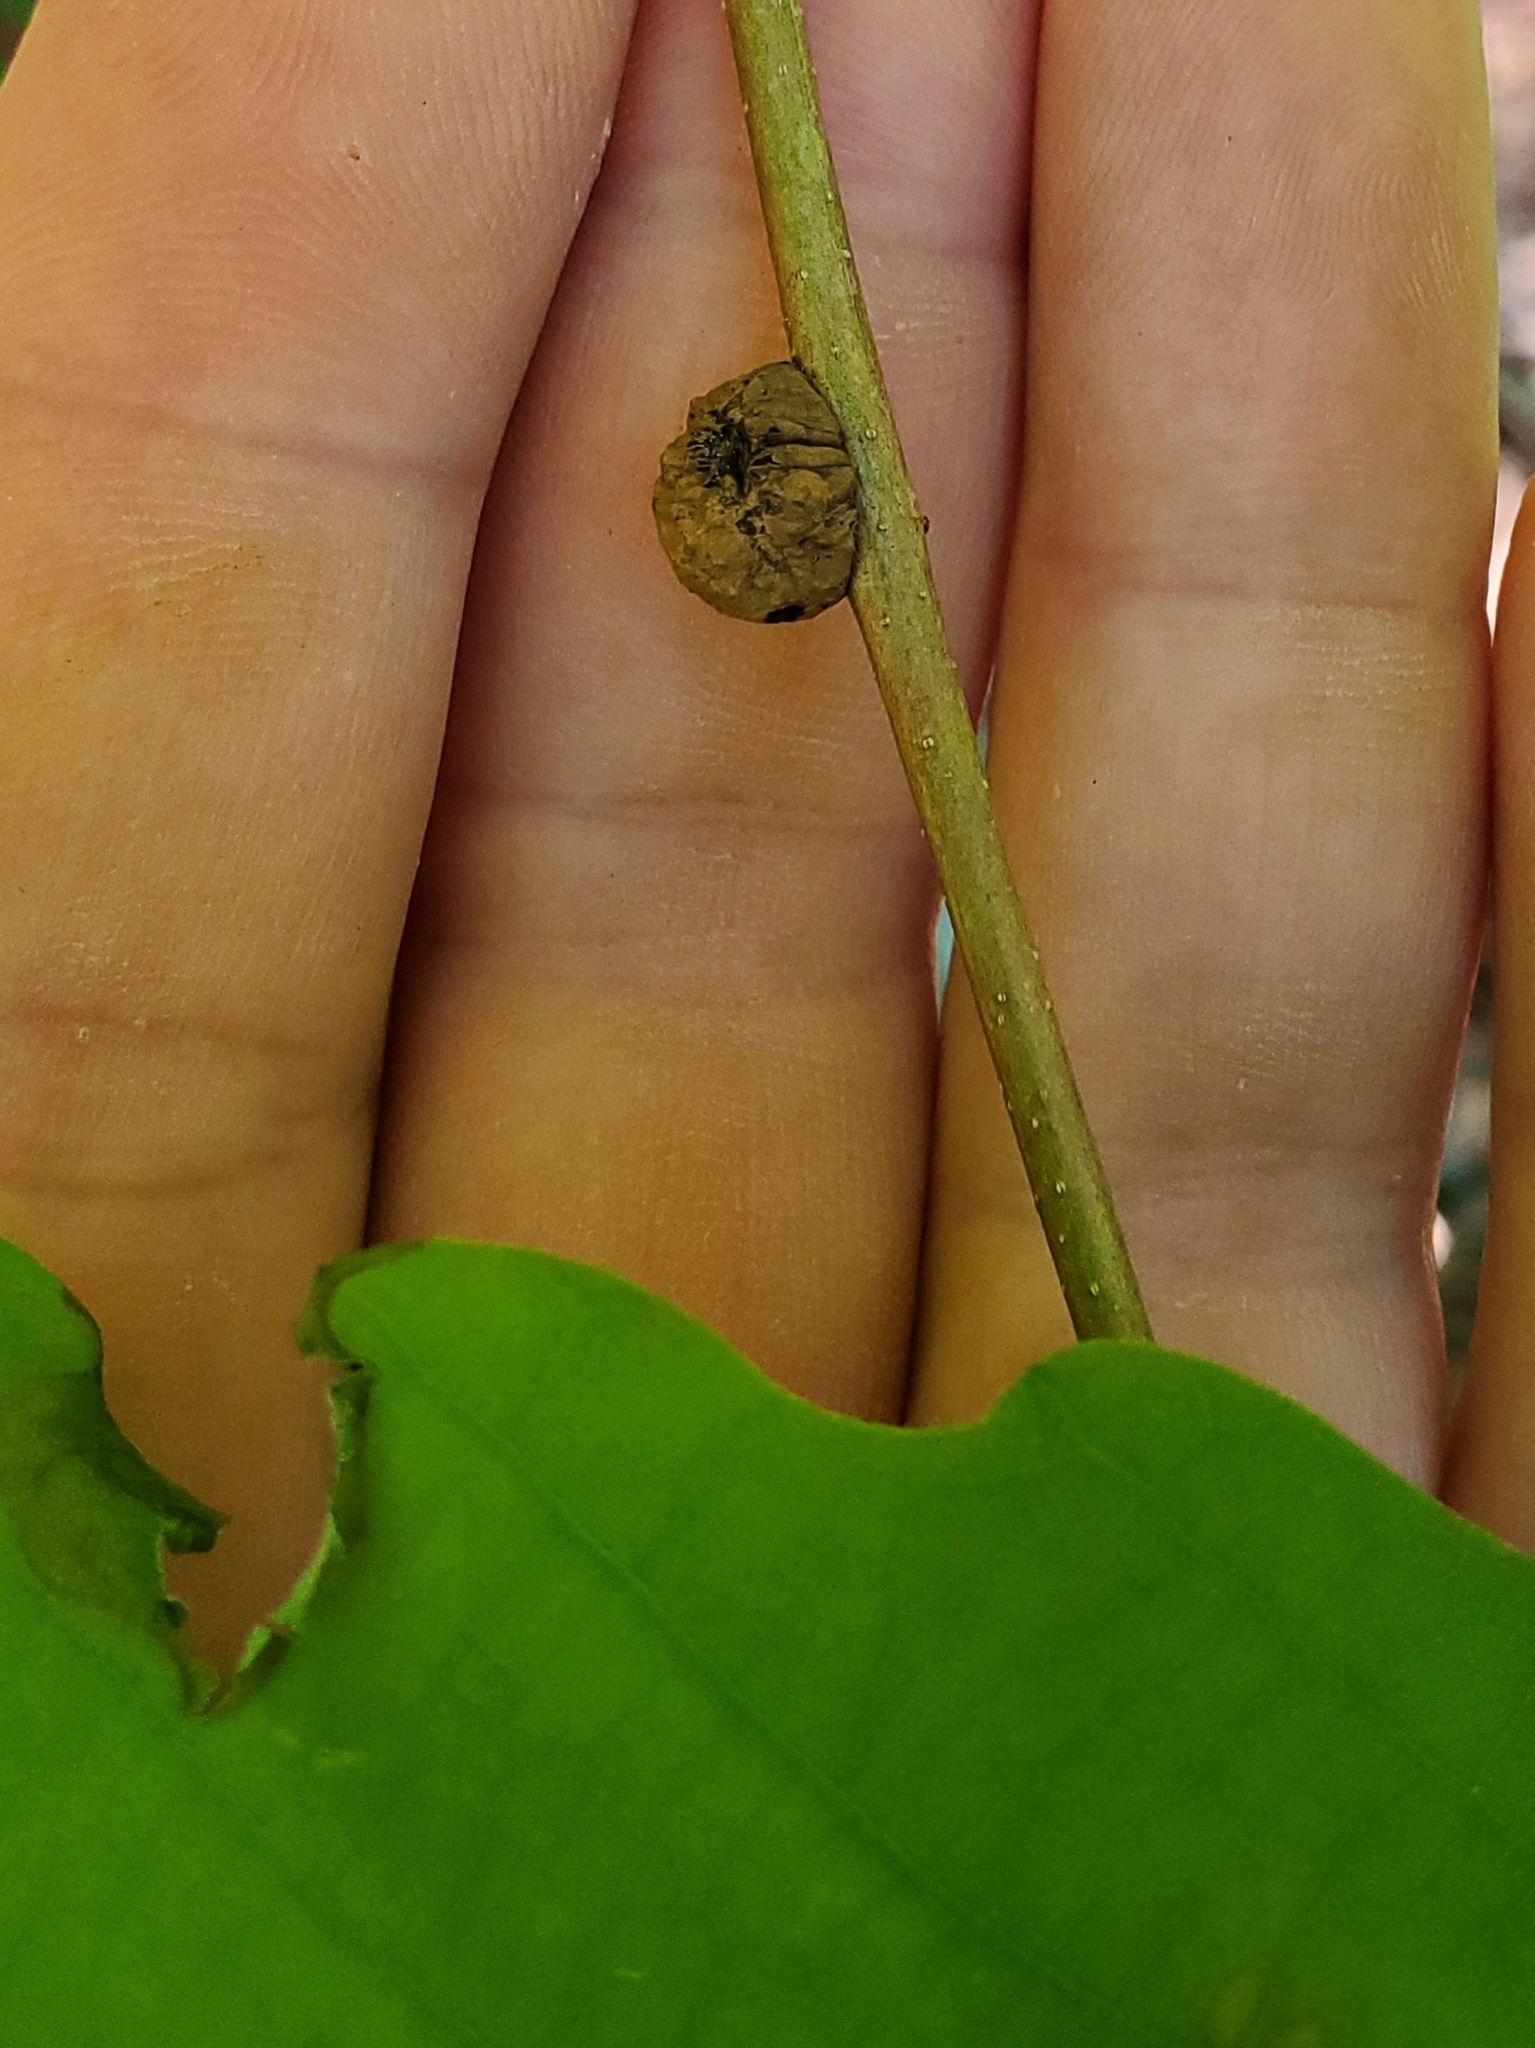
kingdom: Animalia
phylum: Arthropoda
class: Insecta
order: Hymenoptera
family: Cynipidae
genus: Disholcaspis
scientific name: Disholcaspis quercusglobulus
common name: Round bullet gall wasp
